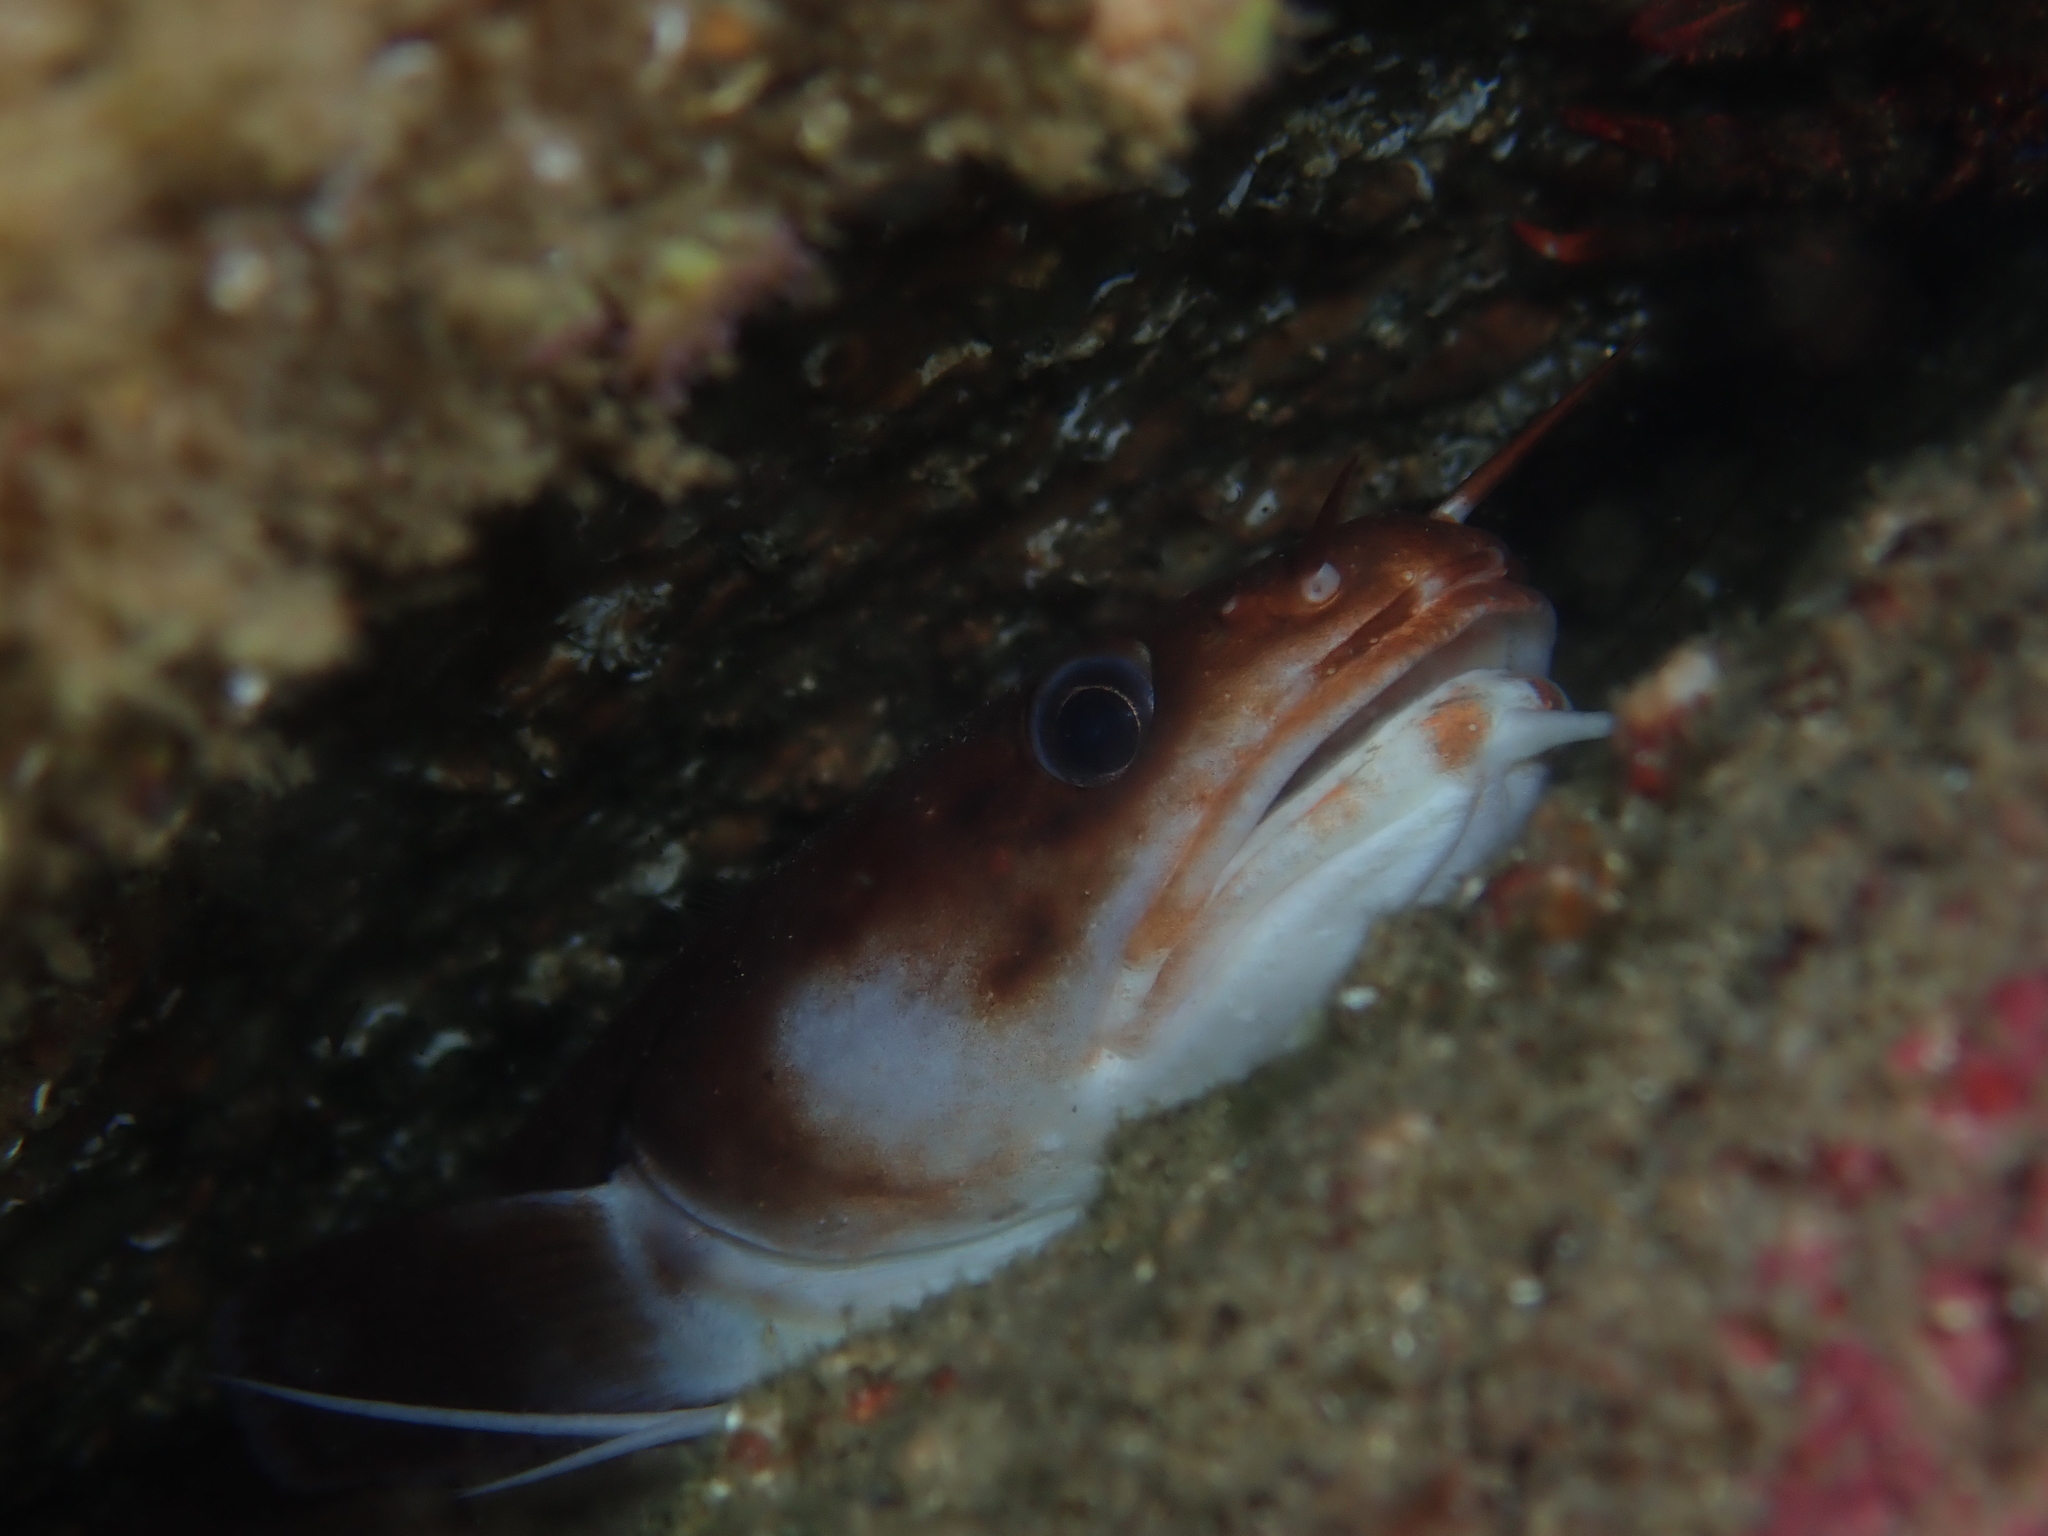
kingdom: Animalia
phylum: Chordata
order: Gadiformes
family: Lotidae
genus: Gaidropsarus
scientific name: Gaidropsarus vulgaris
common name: Three-bearded rockling
